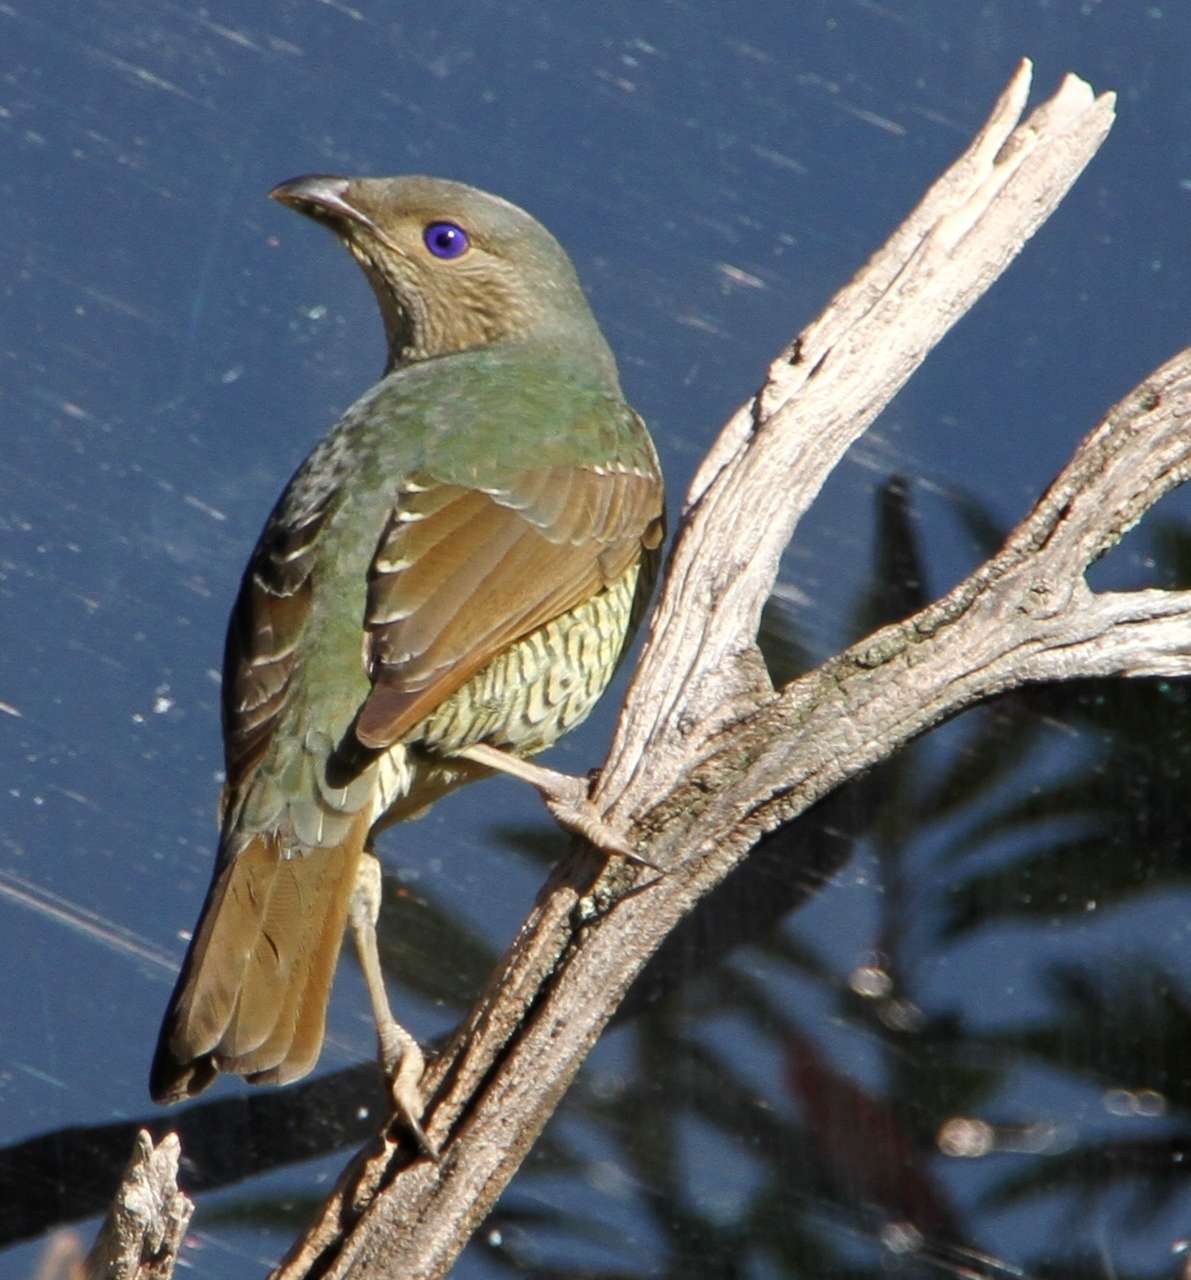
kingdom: Animalia
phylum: Chordata
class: Aves
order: Passeriformes
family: Ptilonorhynchidae
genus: Ptilonorhynchus
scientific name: Ptilonorhynchus violaceus
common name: Satin bowerbird
